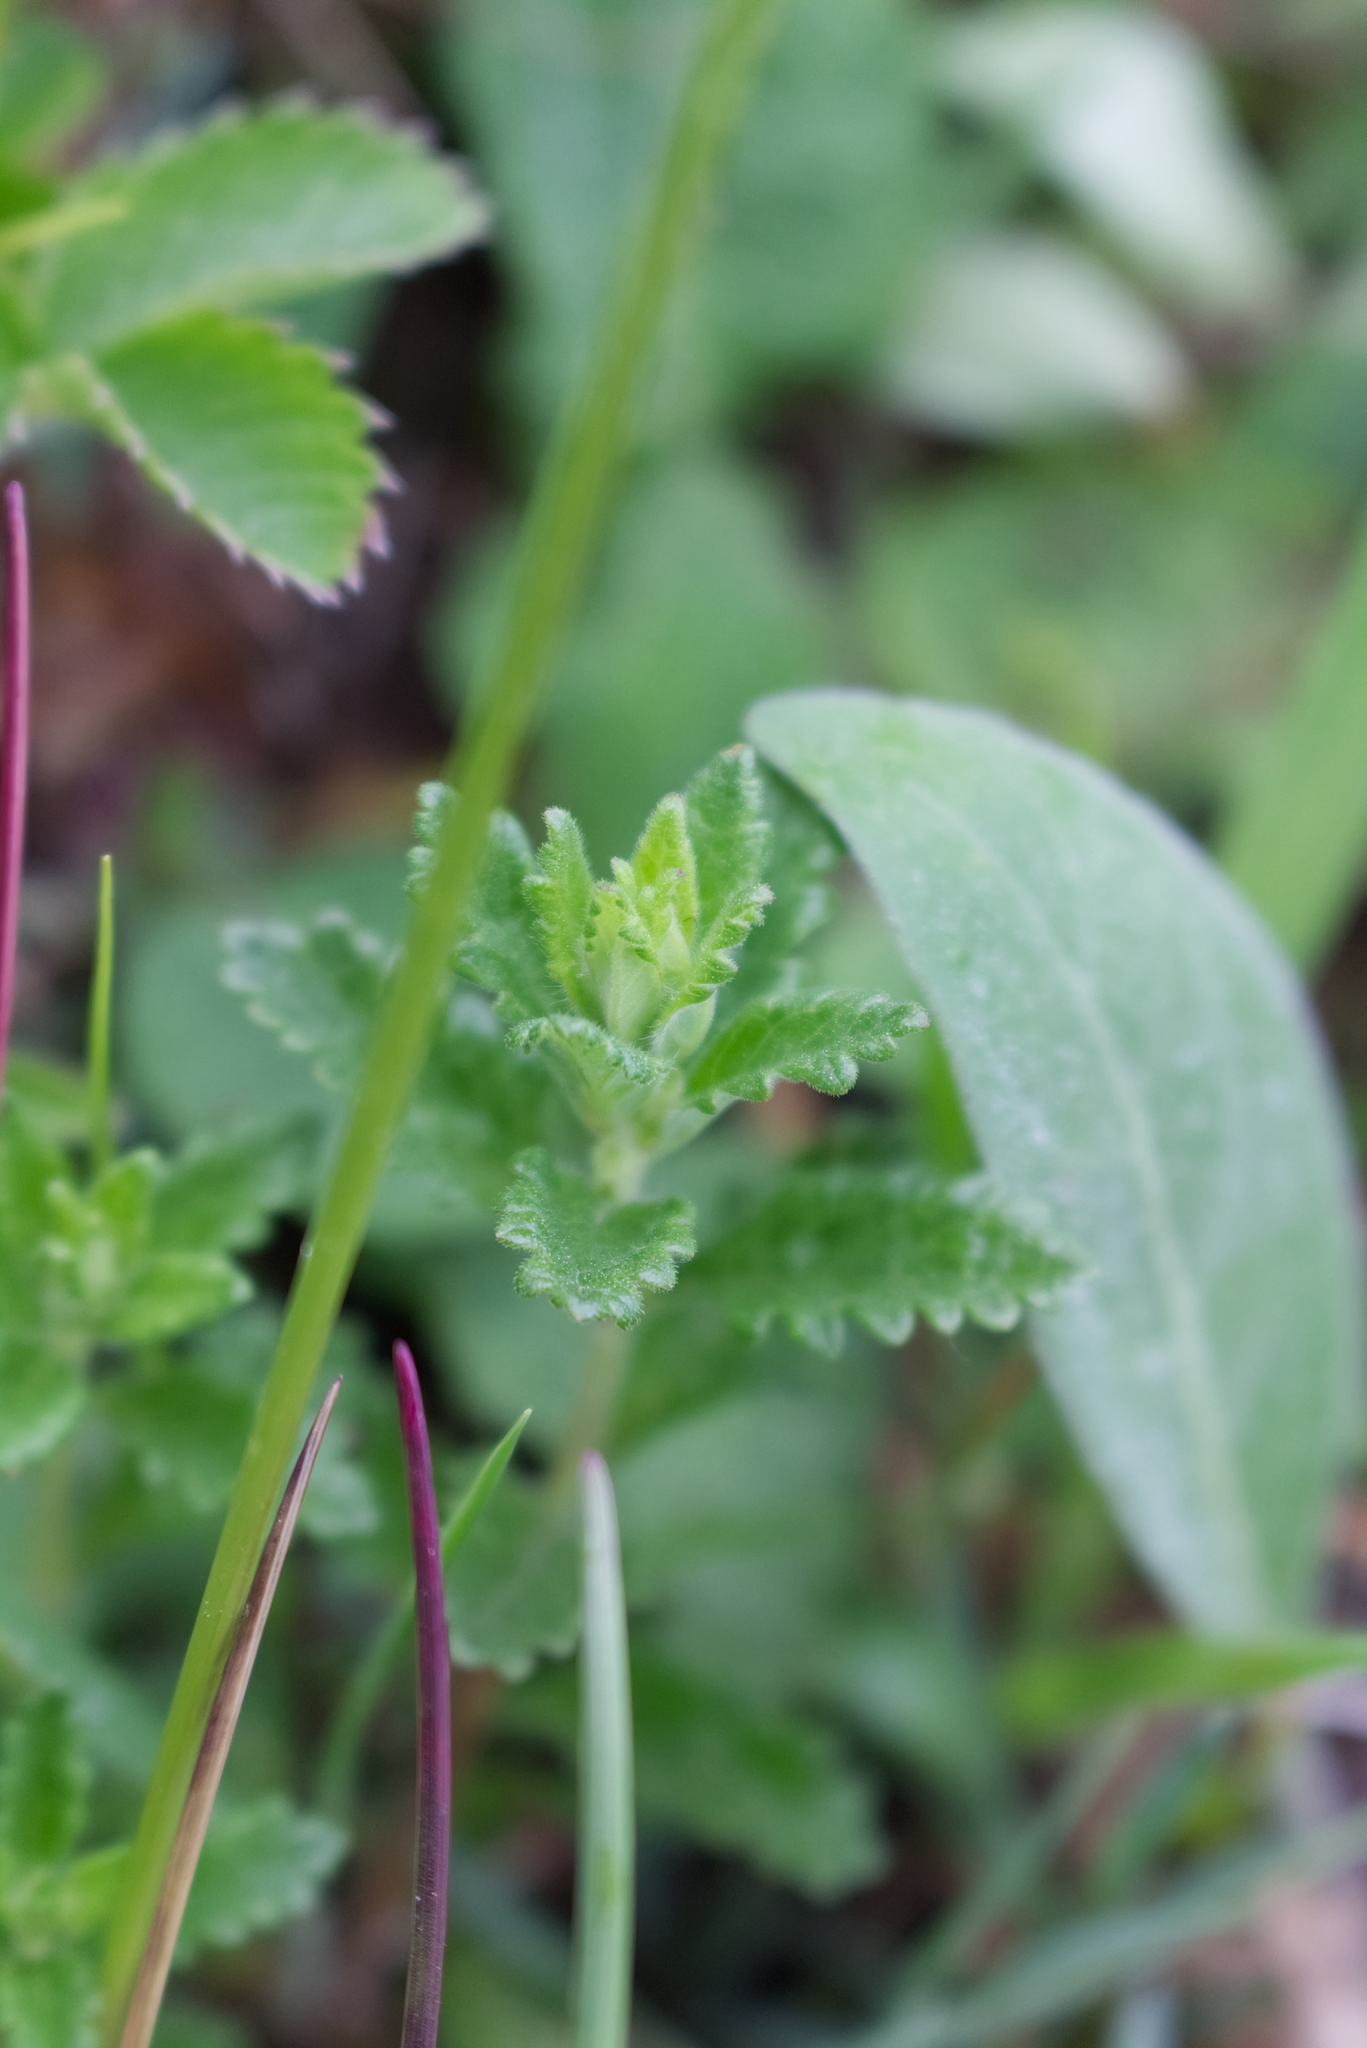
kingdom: Plantae
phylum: Tracheophyta
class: Magnoliopsida
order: Lamiales
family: Lamiaceae
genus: Teucrium
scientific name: Teucrium chamaedrys
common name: Wall germander
